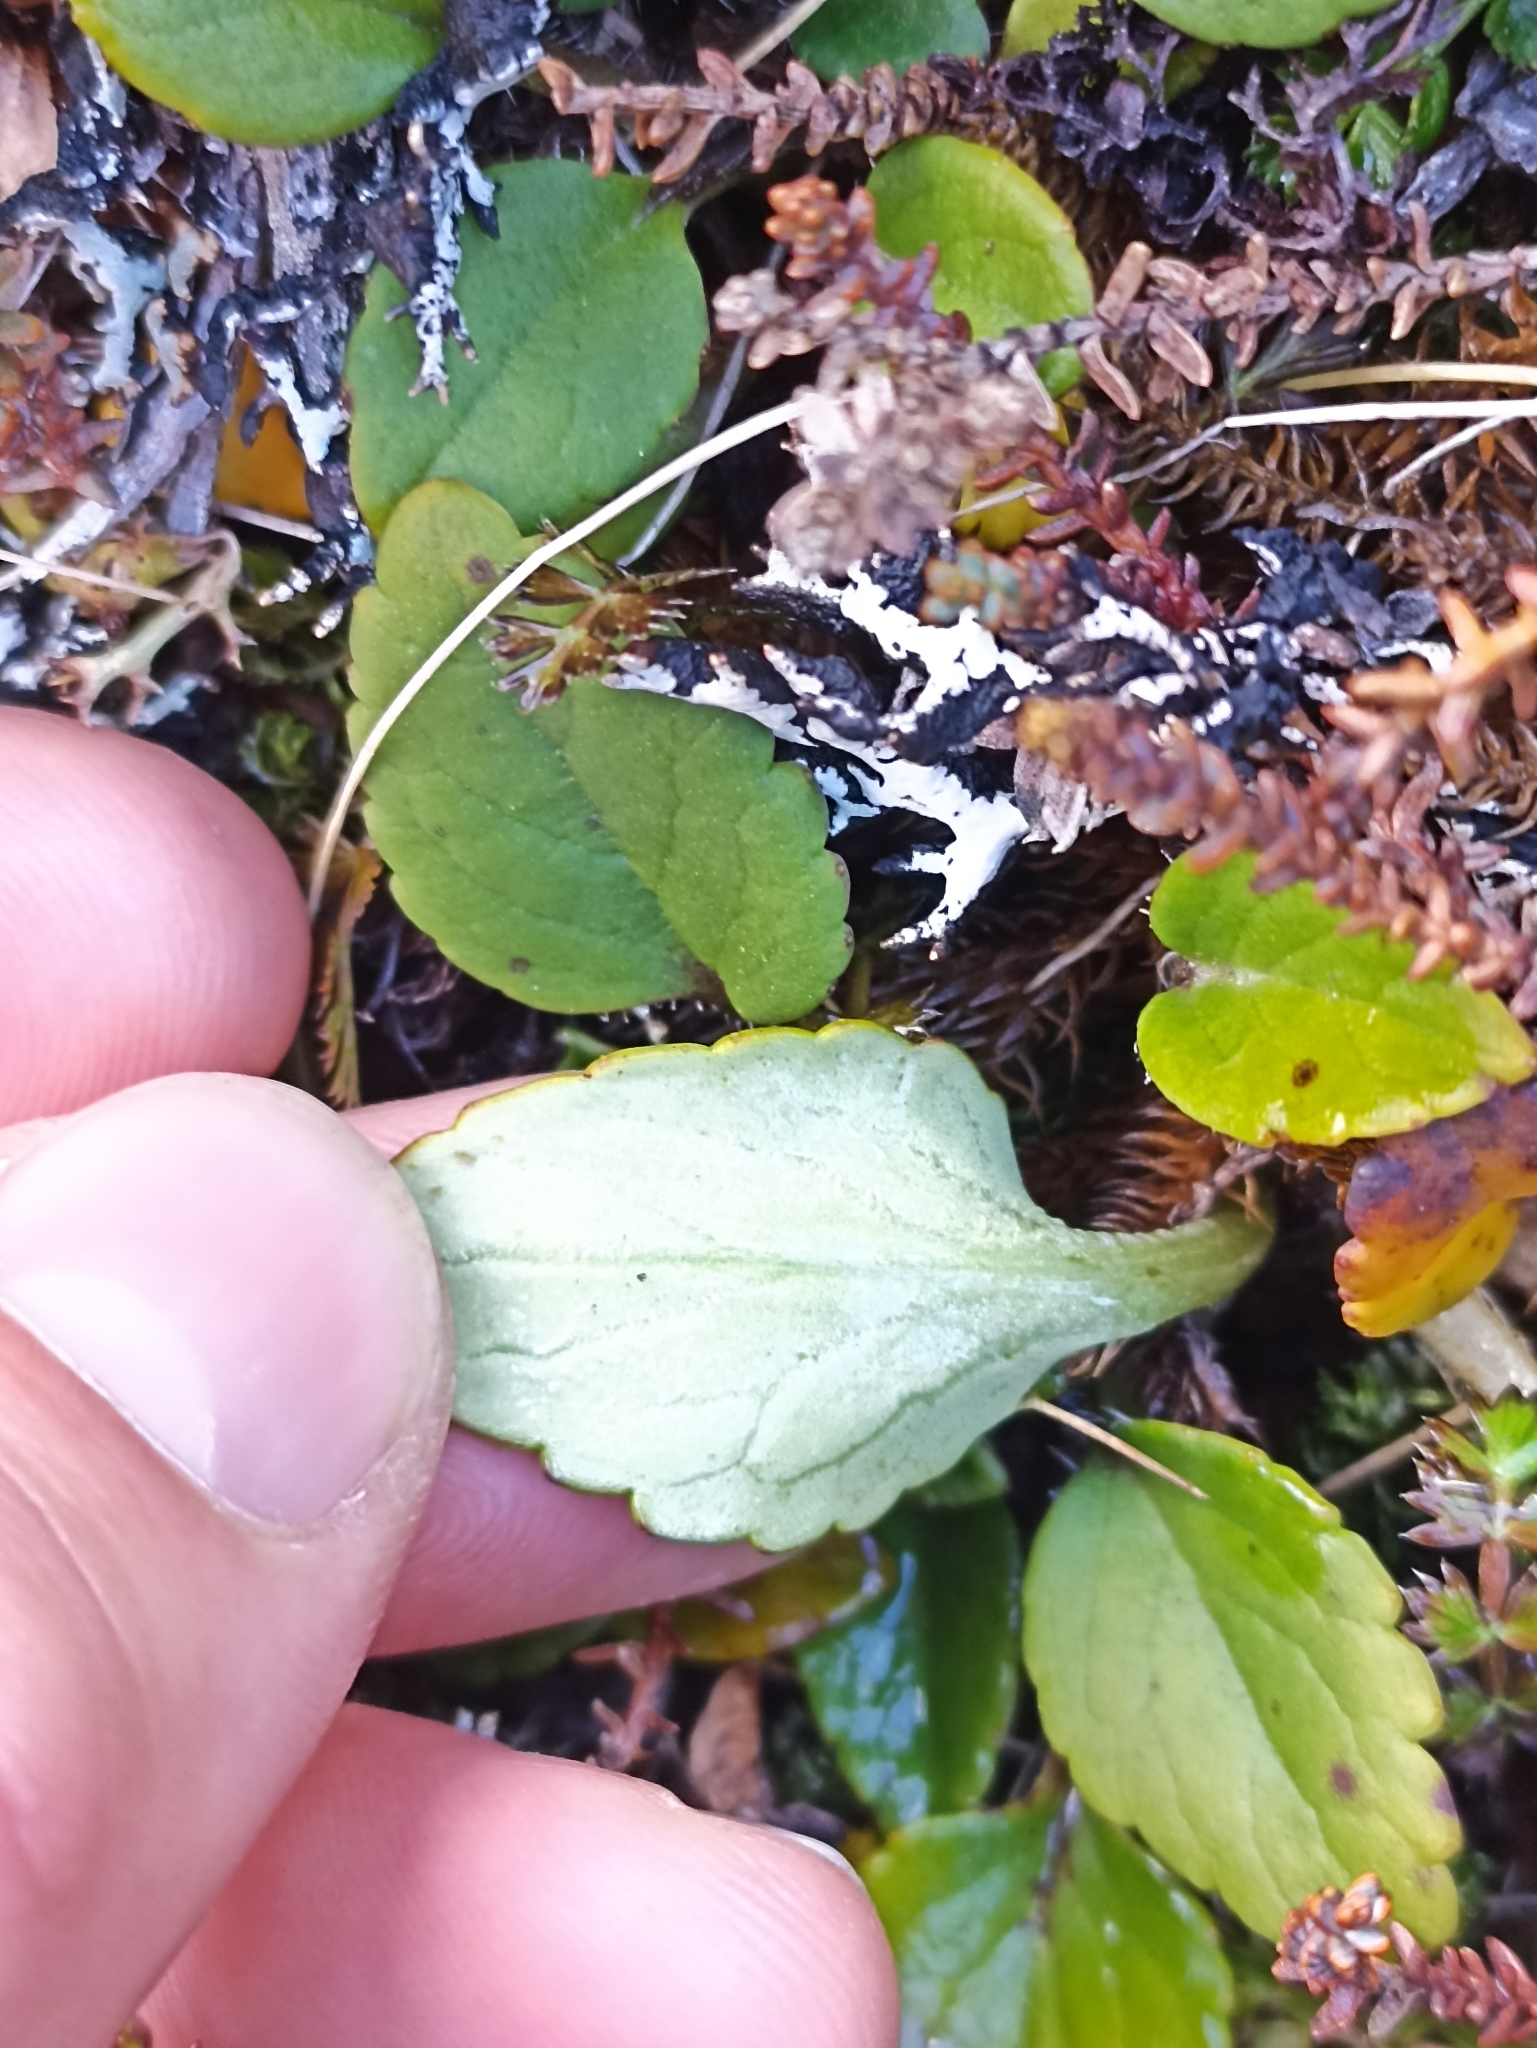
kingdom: Plantae
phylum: Tracheophyta
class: Magnoliopsida
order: Lamiales
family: Plantaginaceae
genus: Ourisia
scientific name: Ourisia vulcanica
